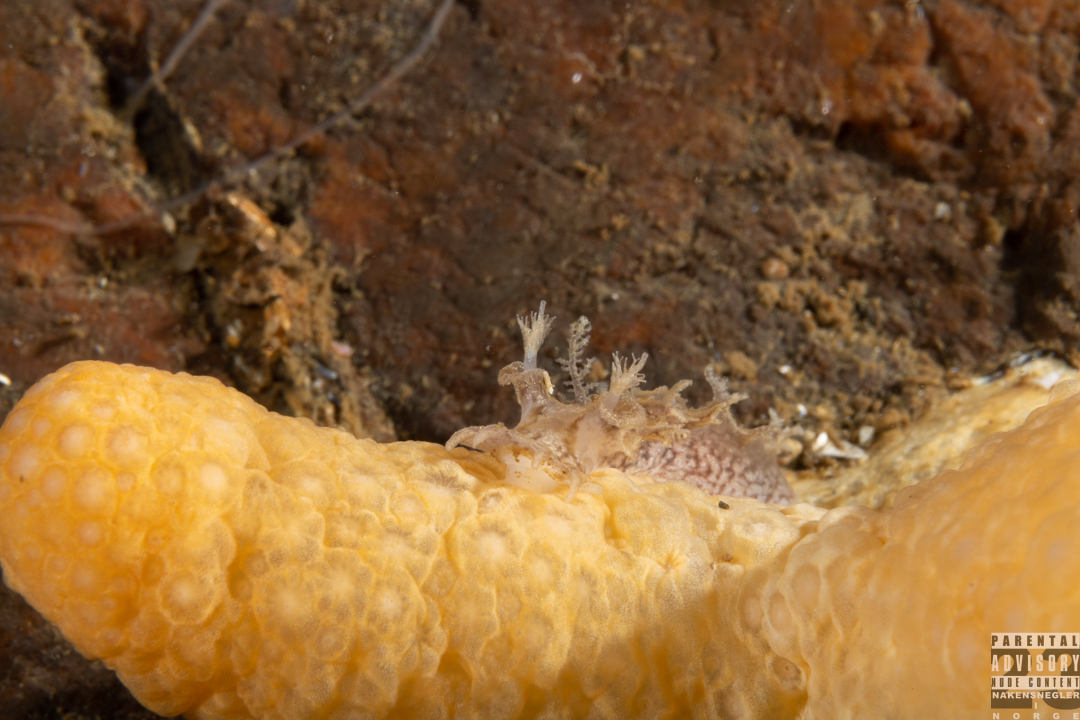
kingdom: Animalia
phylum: Mollusca
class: Gastropoda
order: Nudibranchia
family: Tritoniidae
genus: Duvaucelia
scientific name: Duvaucelia plebeia
